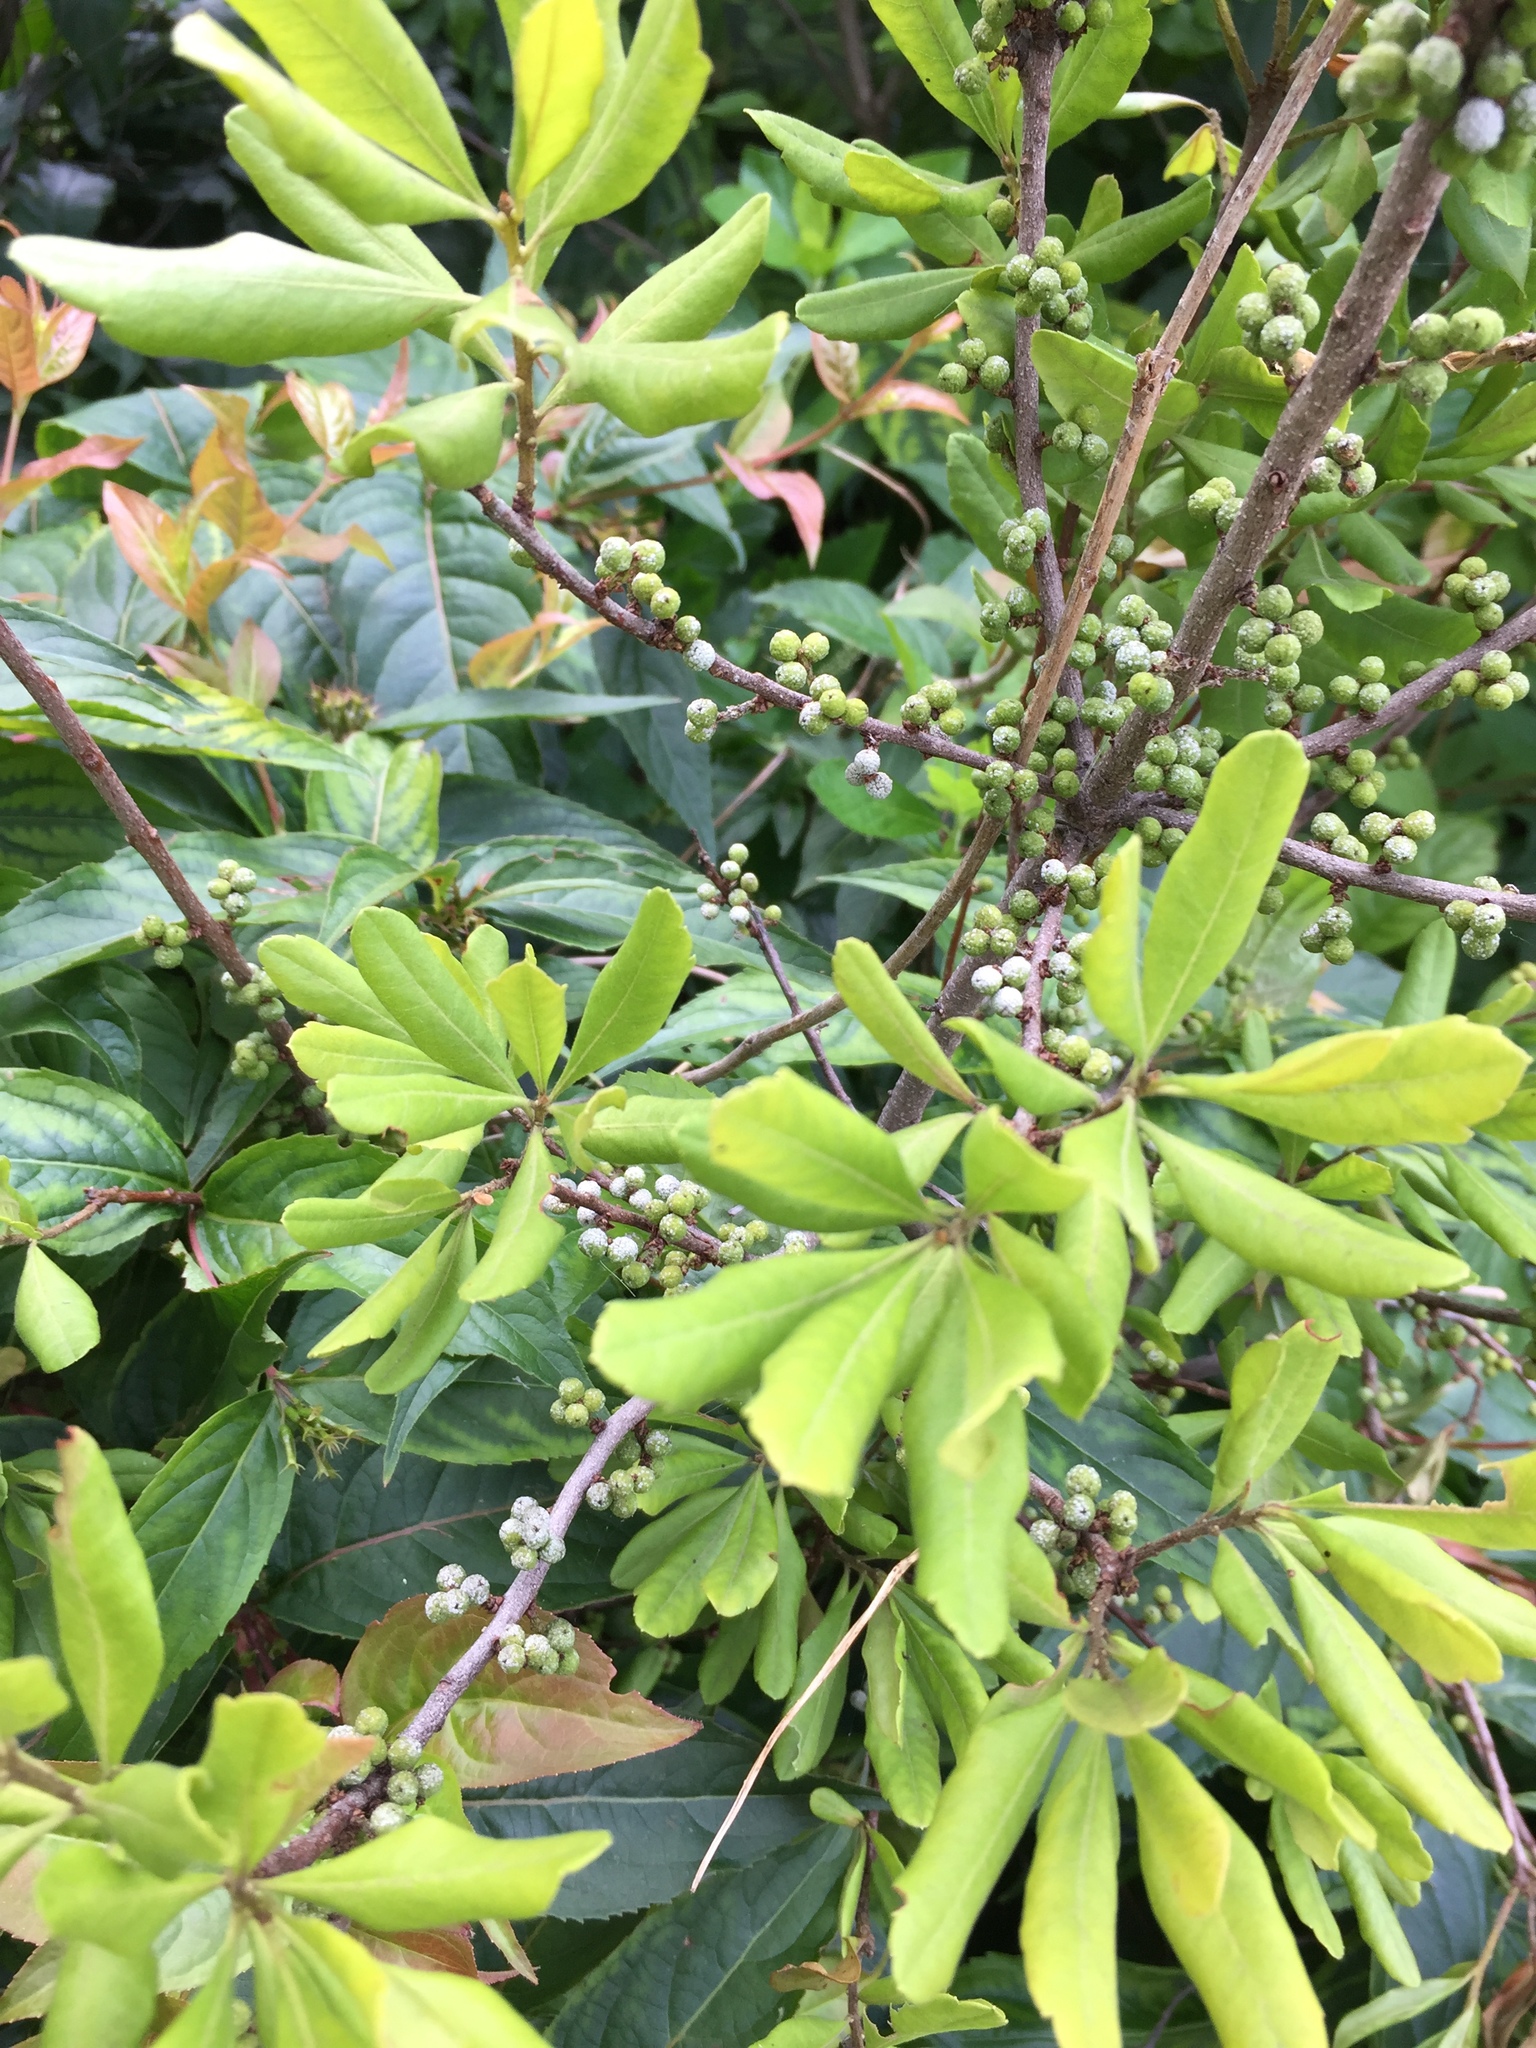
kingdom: Plantae
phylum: Tracheophyta
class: Magnoliopsida
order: Fagales
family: Myricaceae
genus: Morella
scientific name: Morella pensylvanica
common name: Northern bayberry
